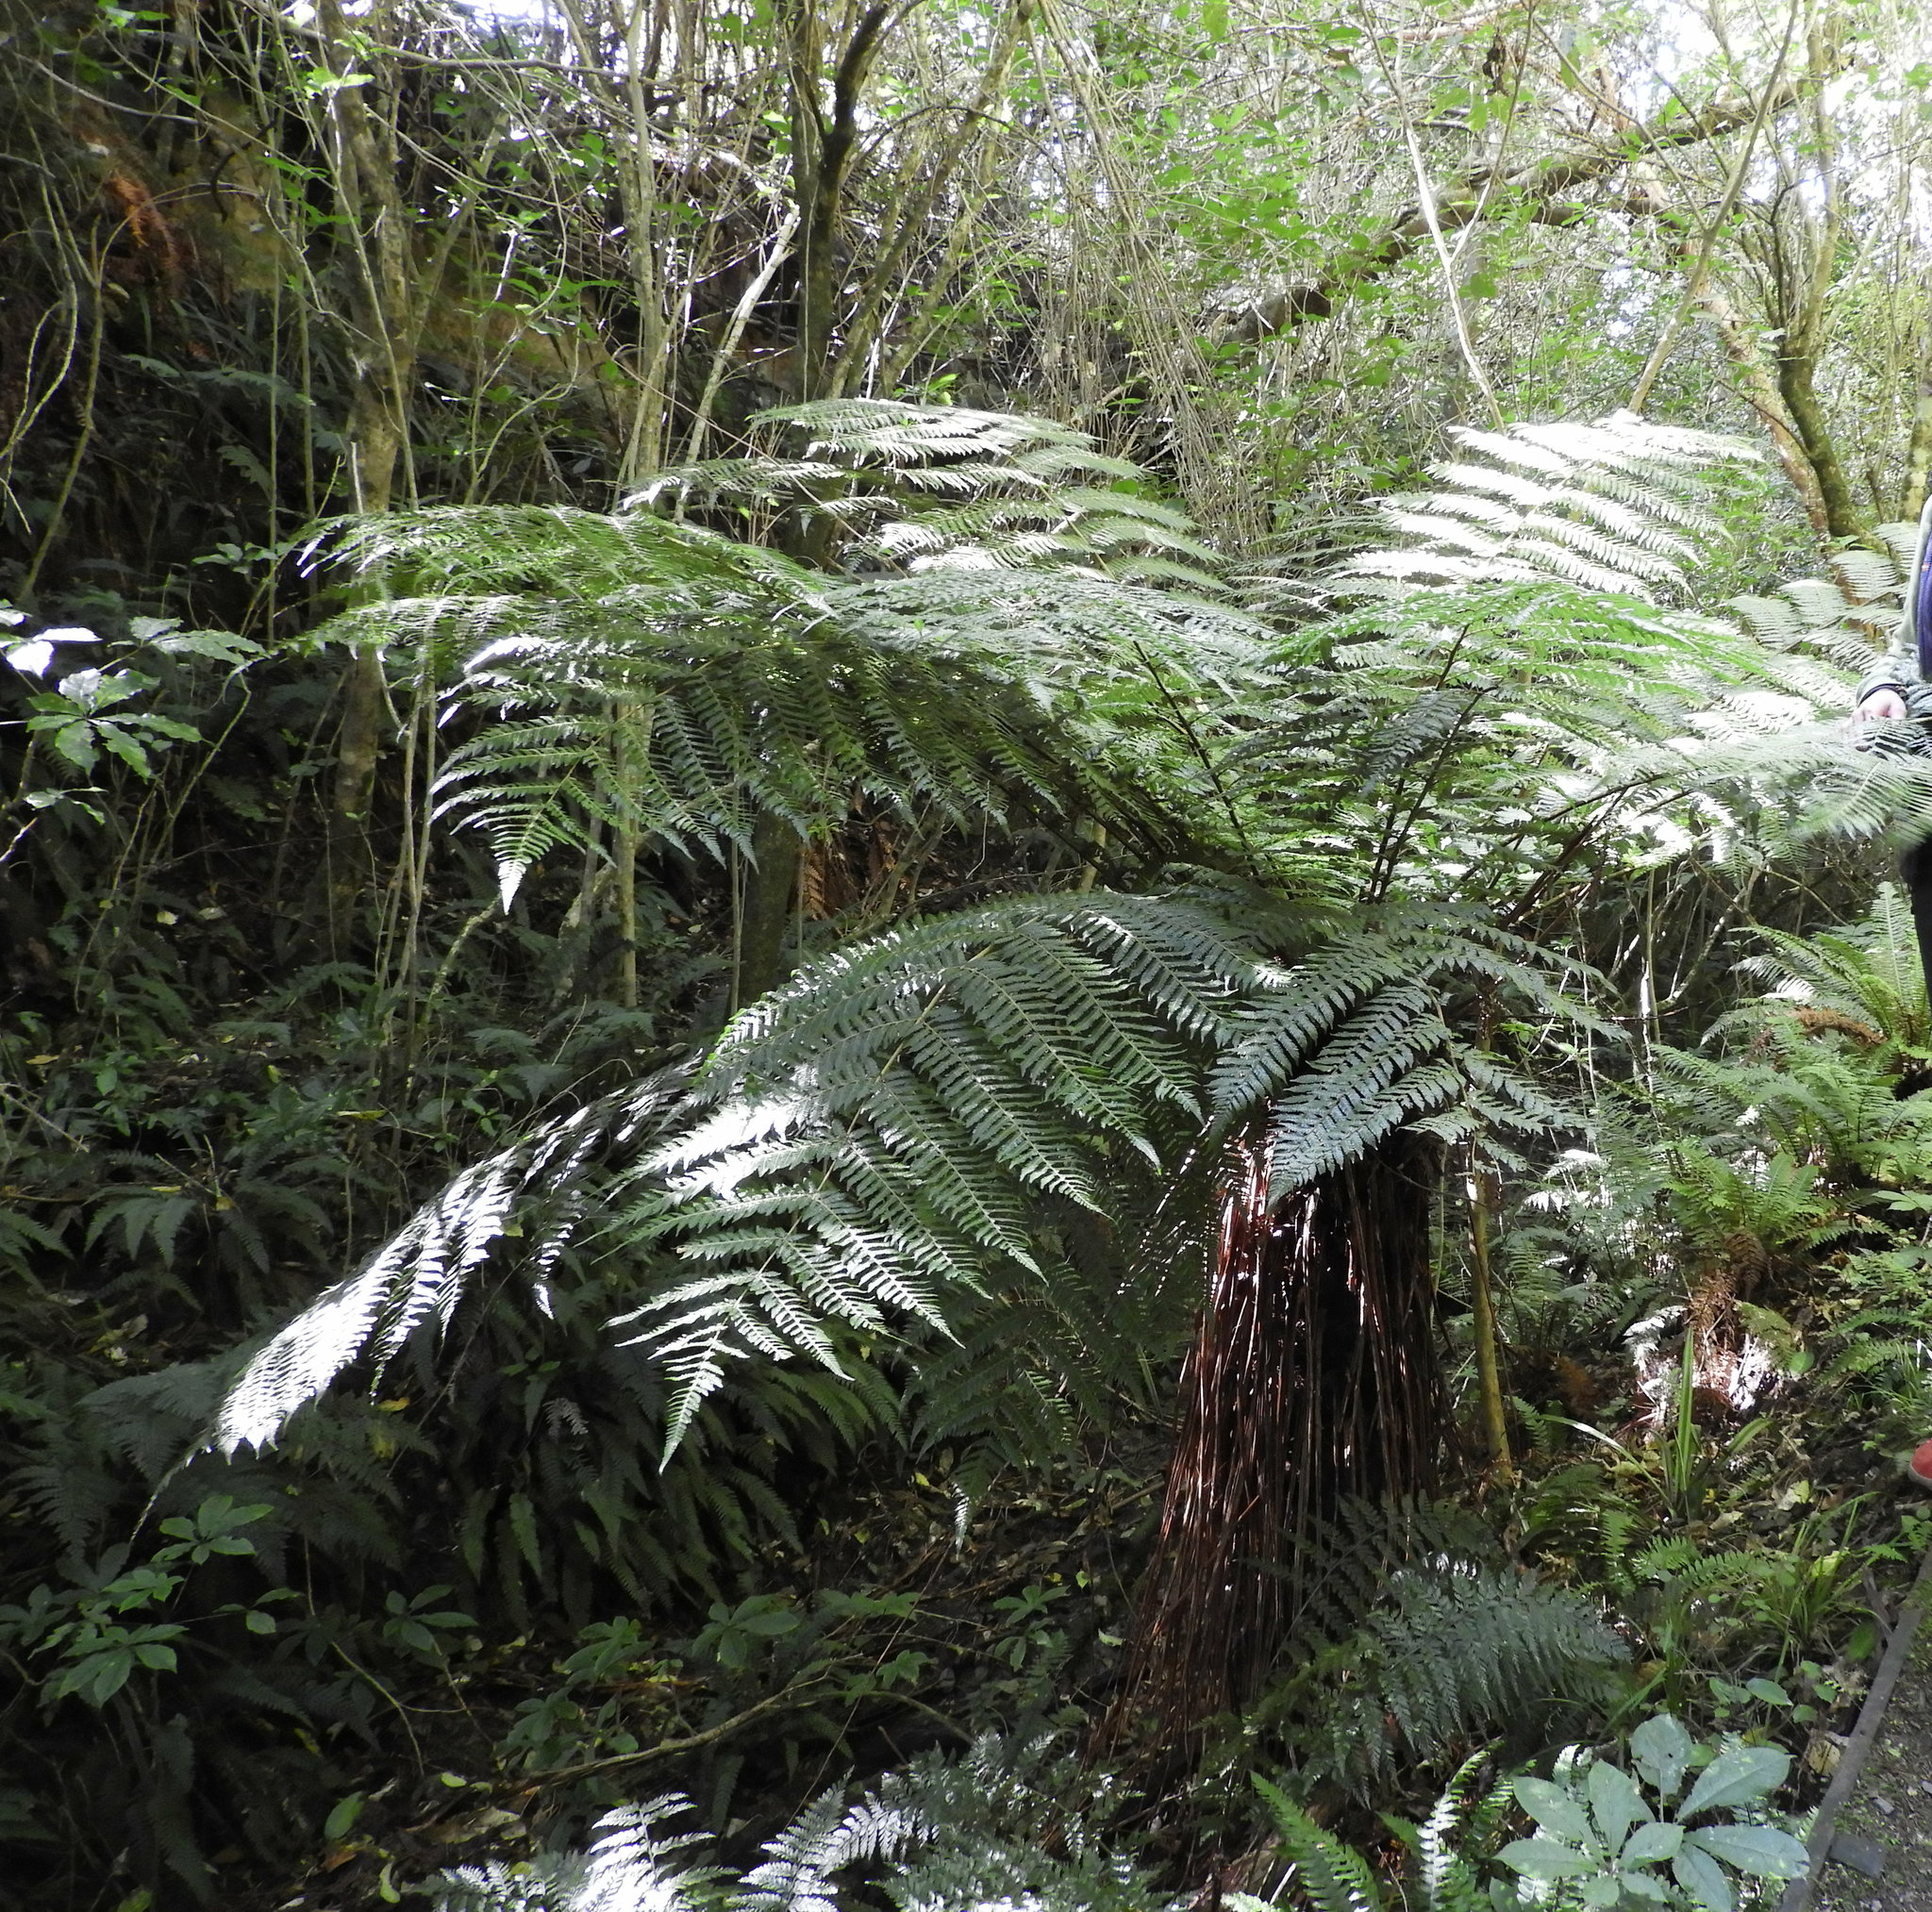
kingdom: Plantae
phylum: Tracheophyta
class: Polypodiopsida
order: Cyatheales
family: Cyatheaceae
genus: Alsophila
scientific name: Alsophila smithii
